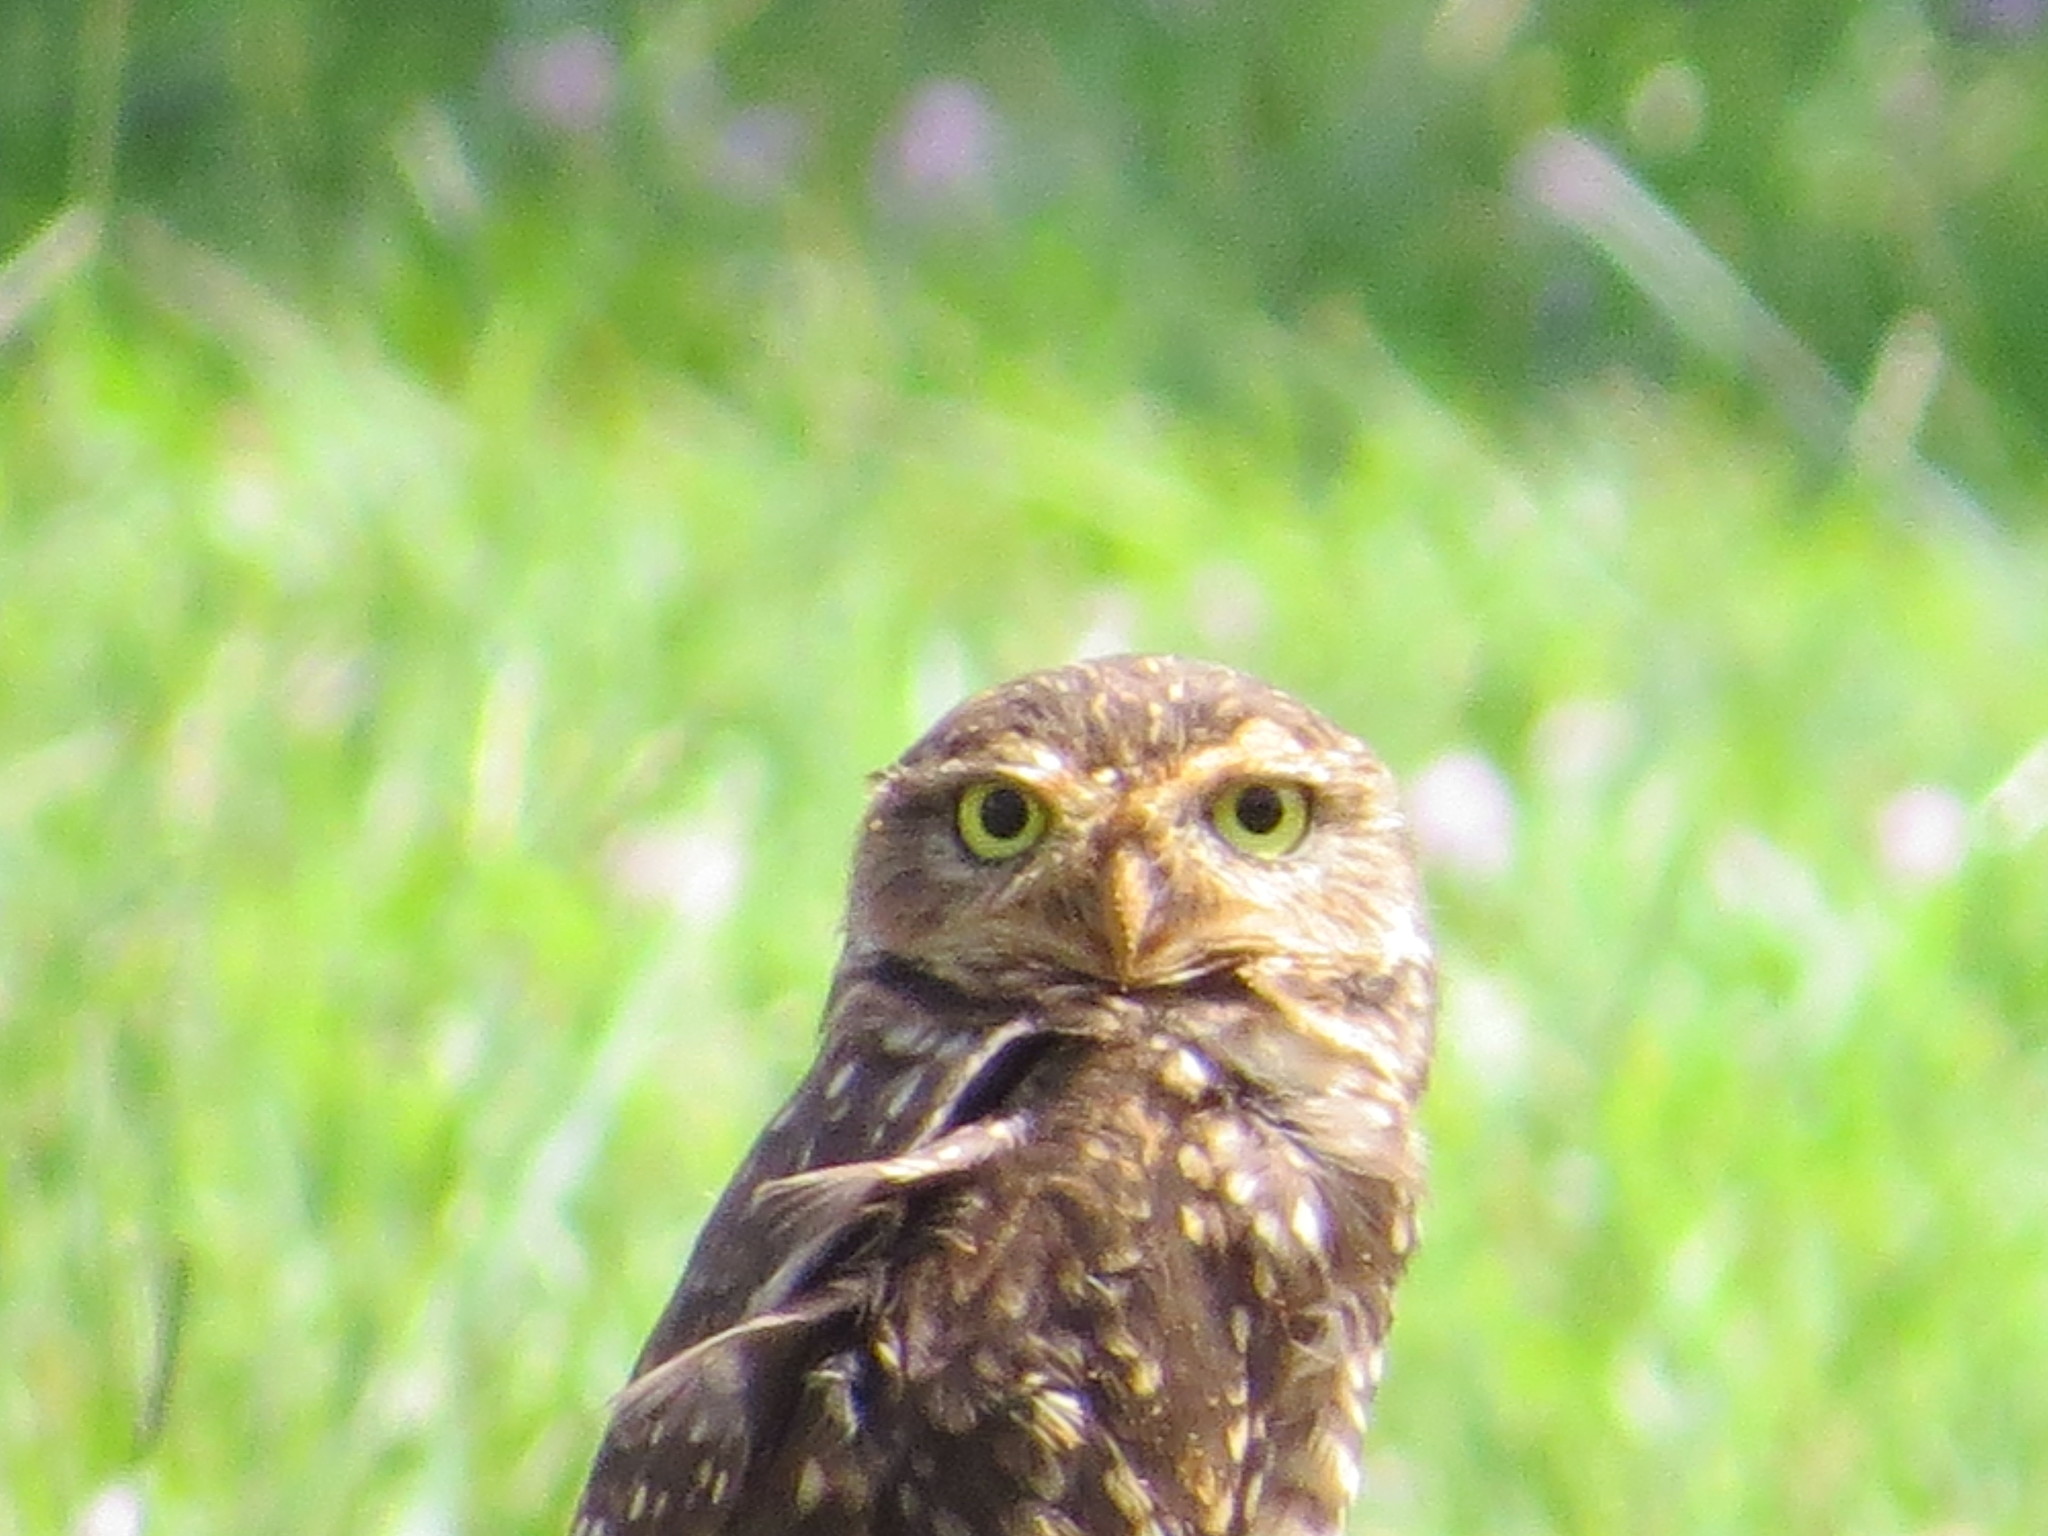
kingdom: Animalia
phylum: Chordata
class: Aves
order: Strigiformes
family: Strigidae
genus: Athene
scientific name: Athene cunicularia
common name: Burrowing owl
